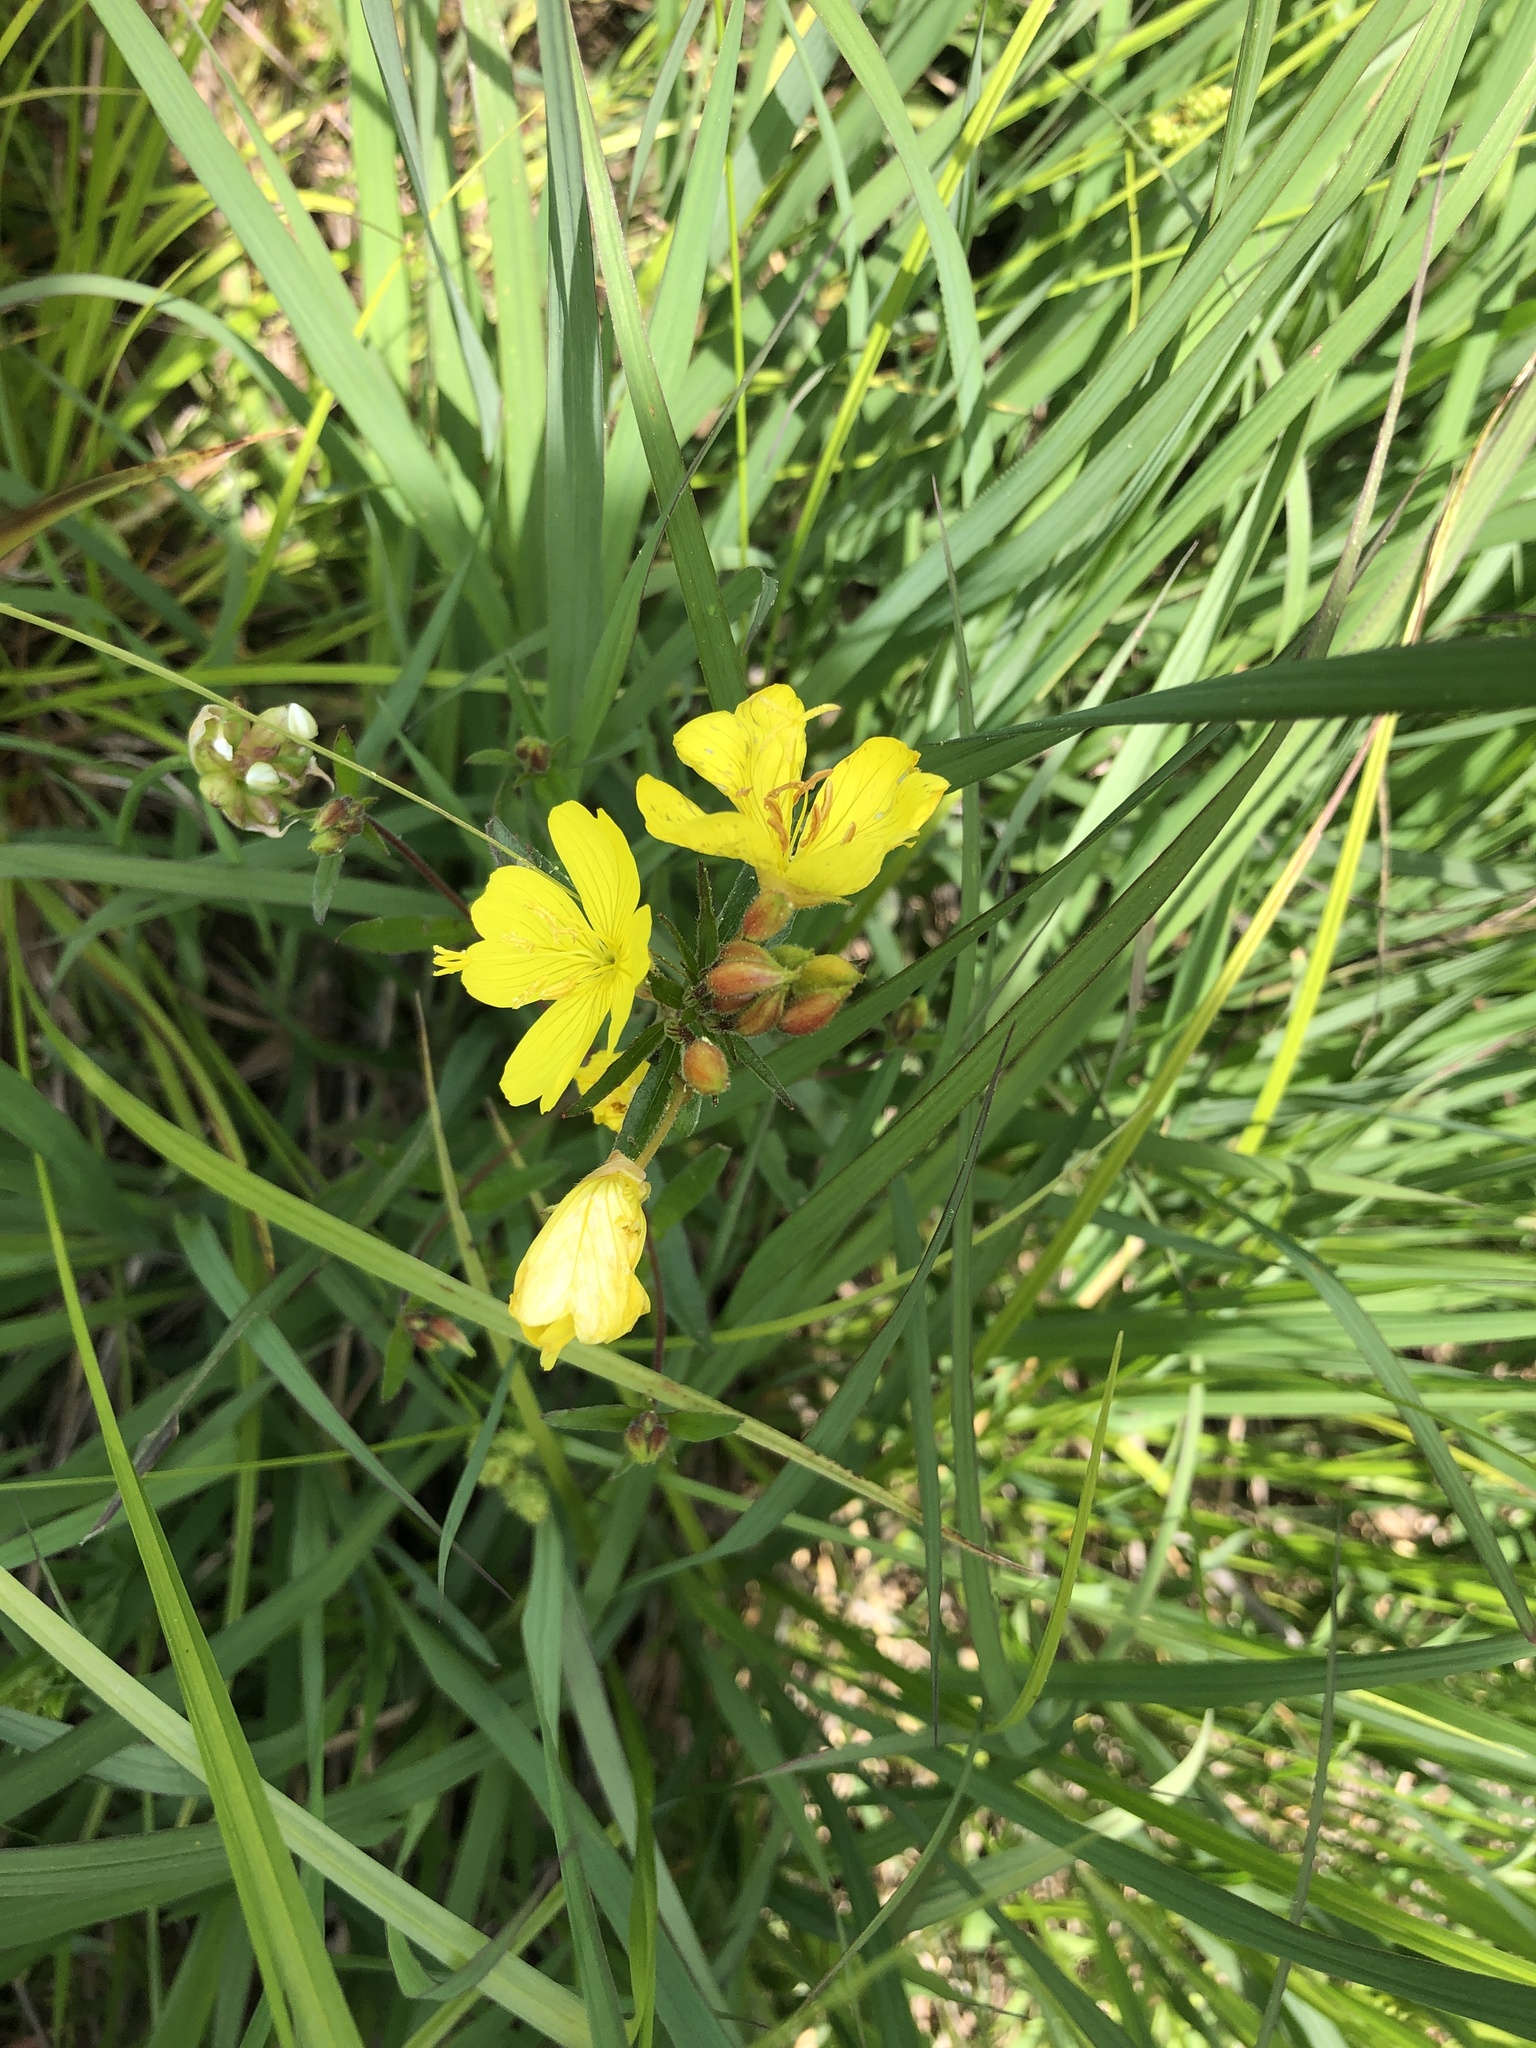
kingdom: Plantae
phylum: Tracheophyta
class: Magnoliopsida
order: Myrtales
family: Onagraceae
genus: Oenothera
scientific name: Oenothera fruticosa
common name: Southern sundrops
